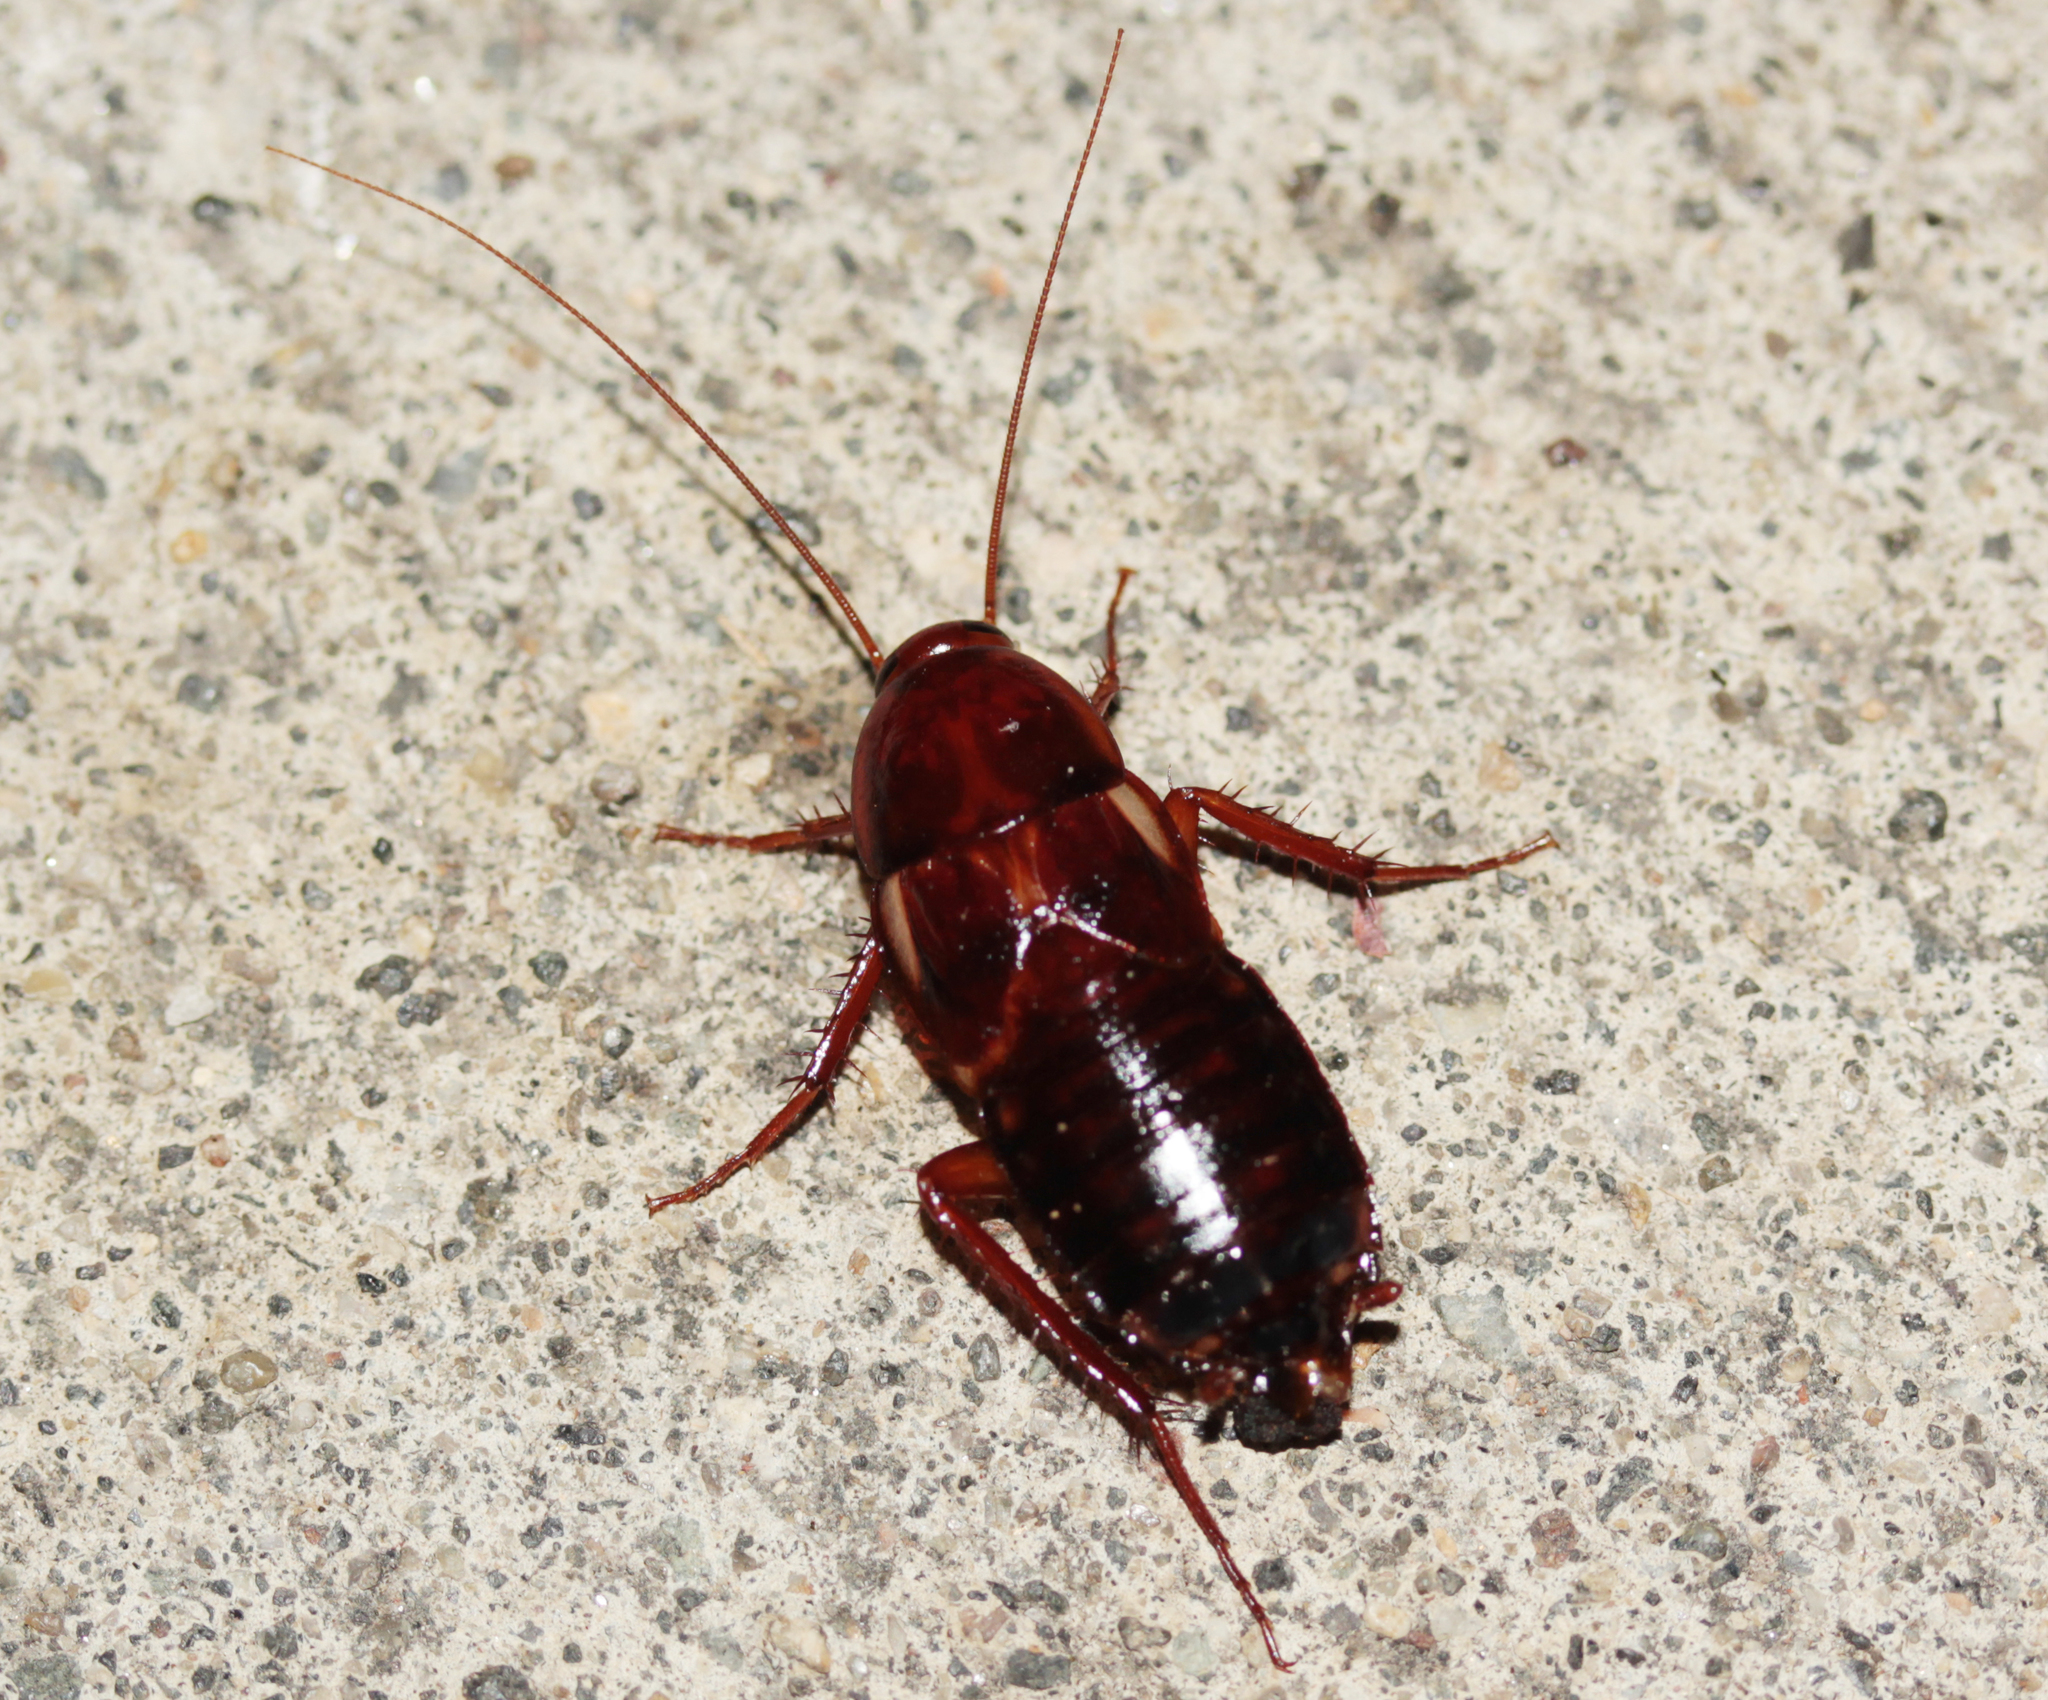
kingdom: Animalia
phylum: Arthropoda
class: Insecta
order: Blattodea
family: Blattidae
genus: Periplaneta
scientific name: Periplaneta lateralis
